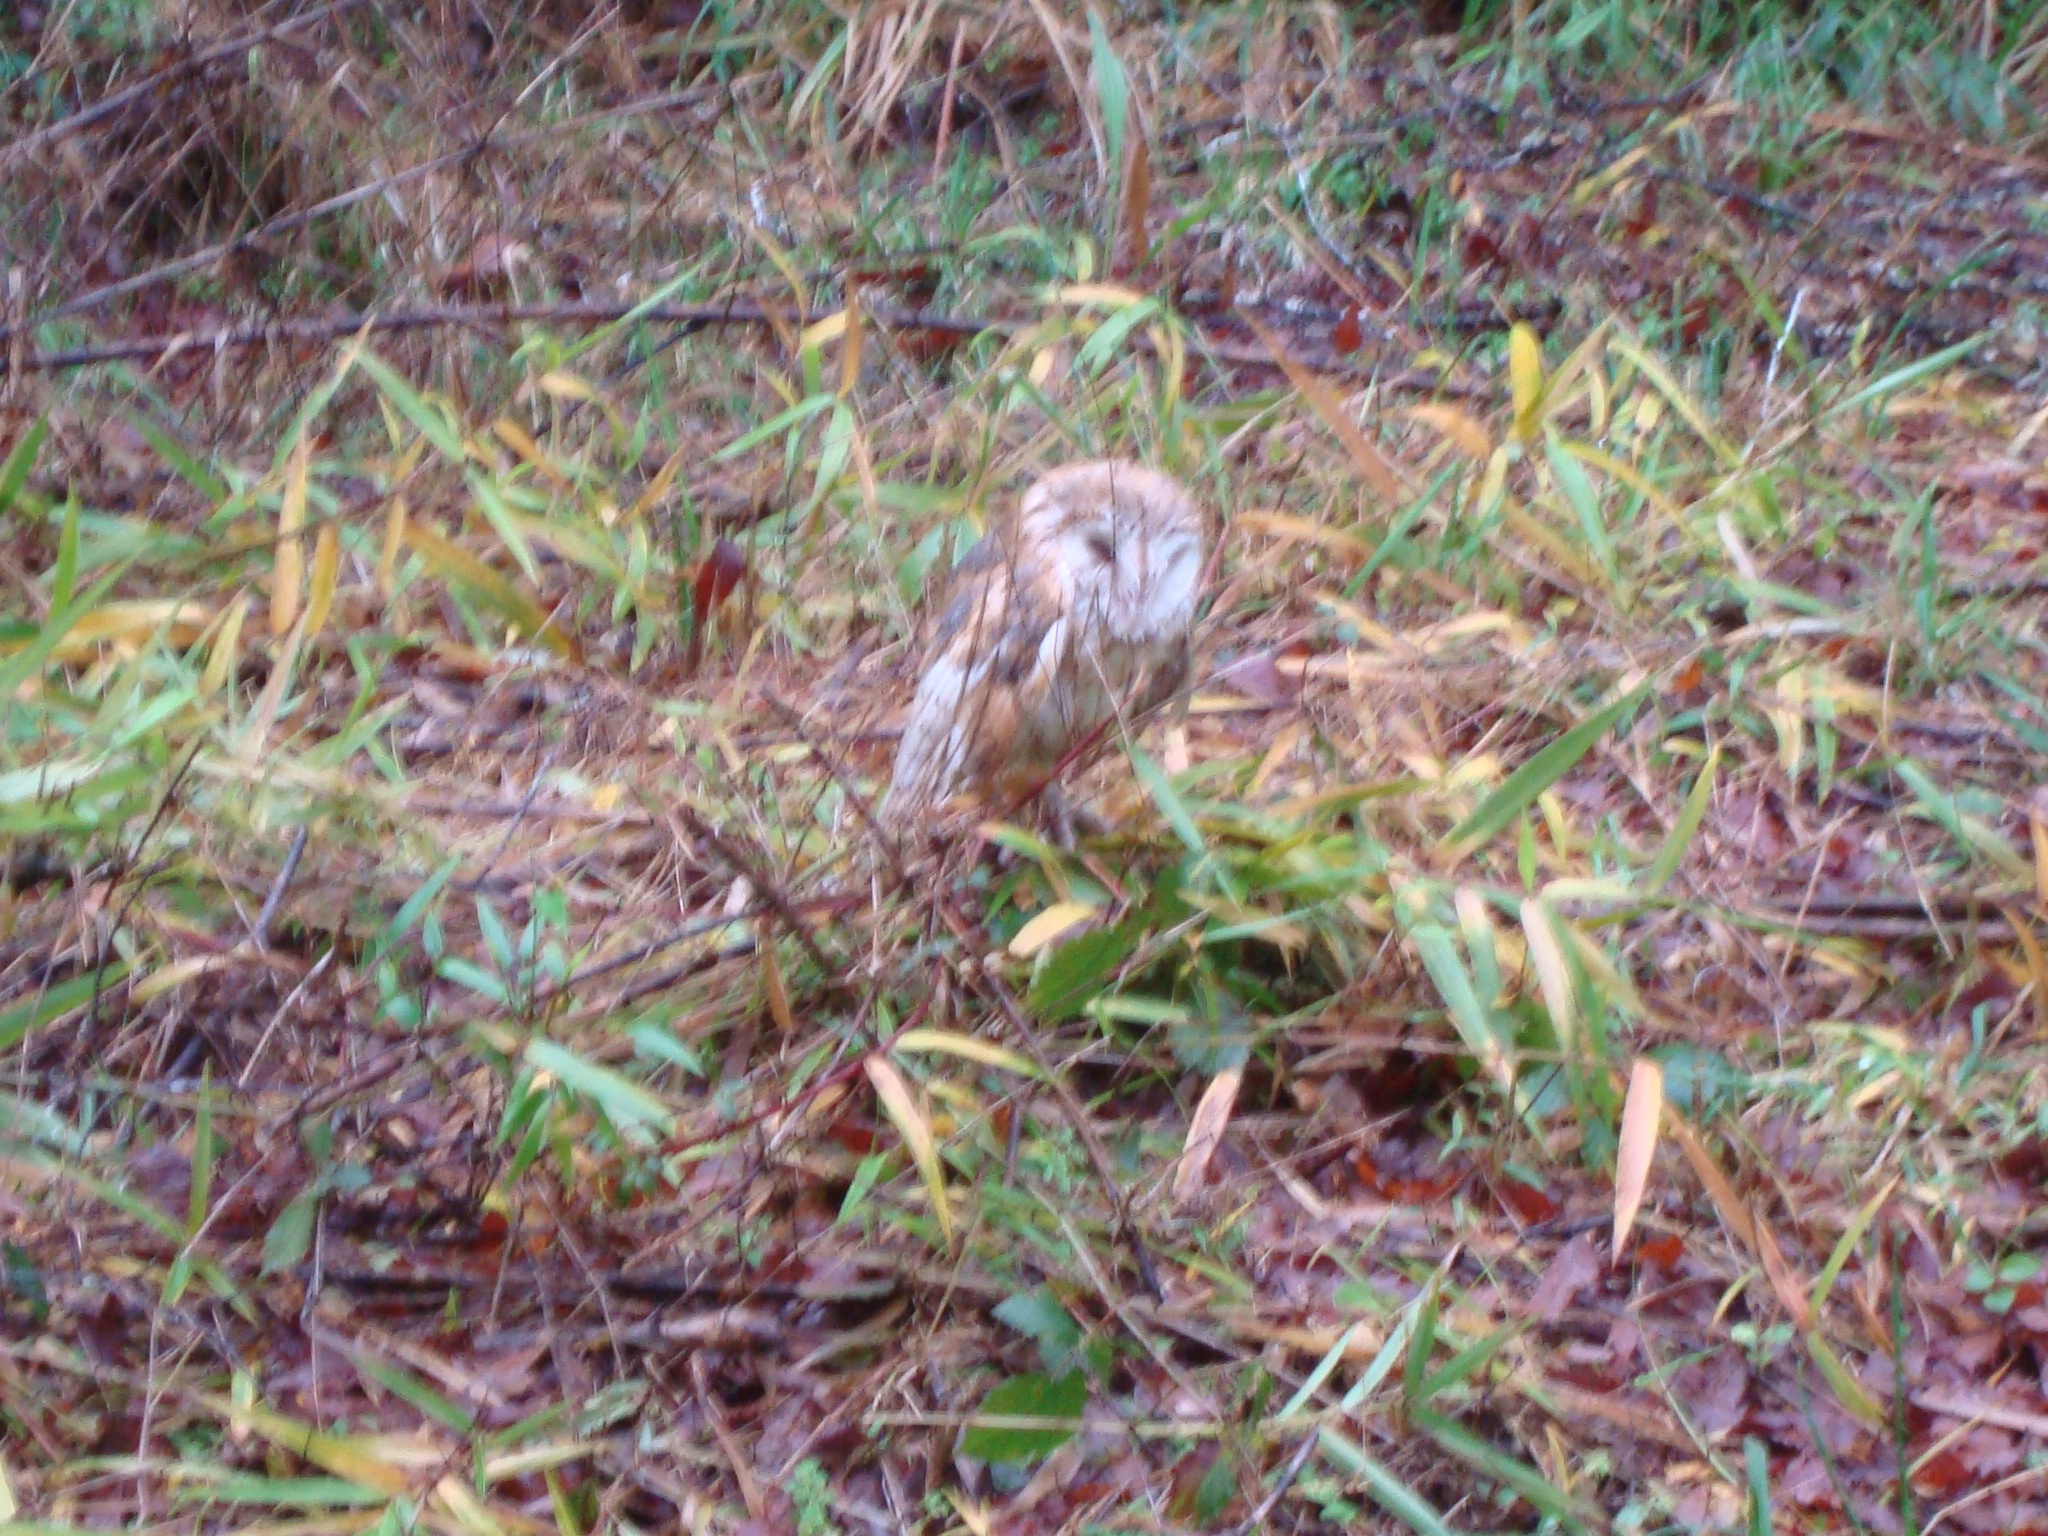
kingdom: Animalia
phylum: Chordata
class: Aves
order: Strigiformes
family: Tytonidae
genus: Tyto
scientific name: Tyto alba
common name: Barn owl
